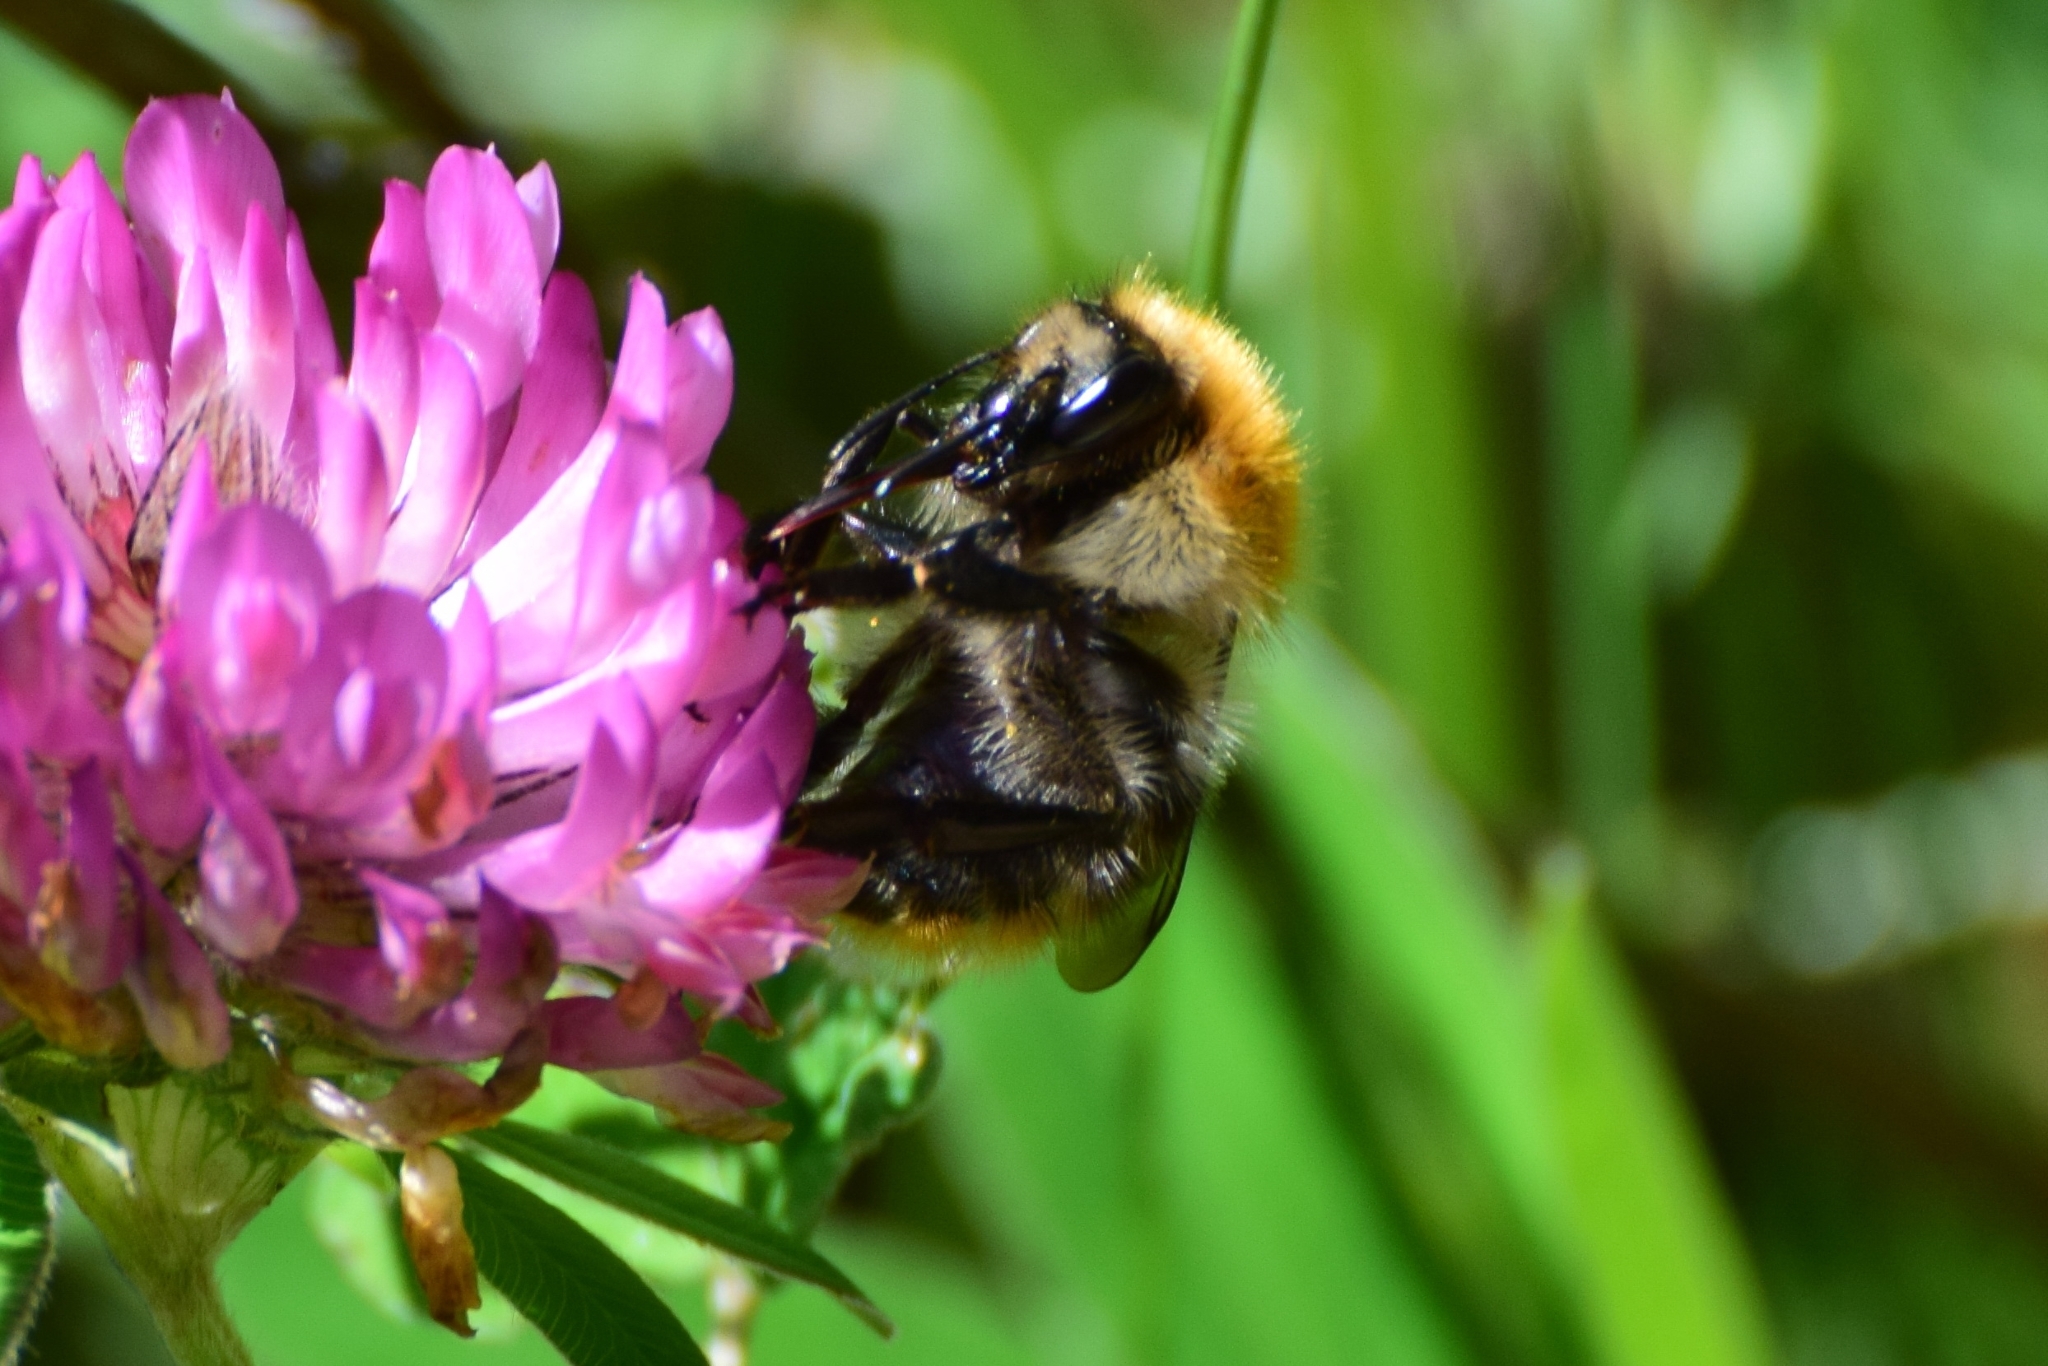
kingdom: Animalia
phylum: Arthropoda
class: Insecta
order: Hymenoptera
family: Apidae
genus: Bombus
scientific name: Bombus pascuorum
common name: Common carder bee
